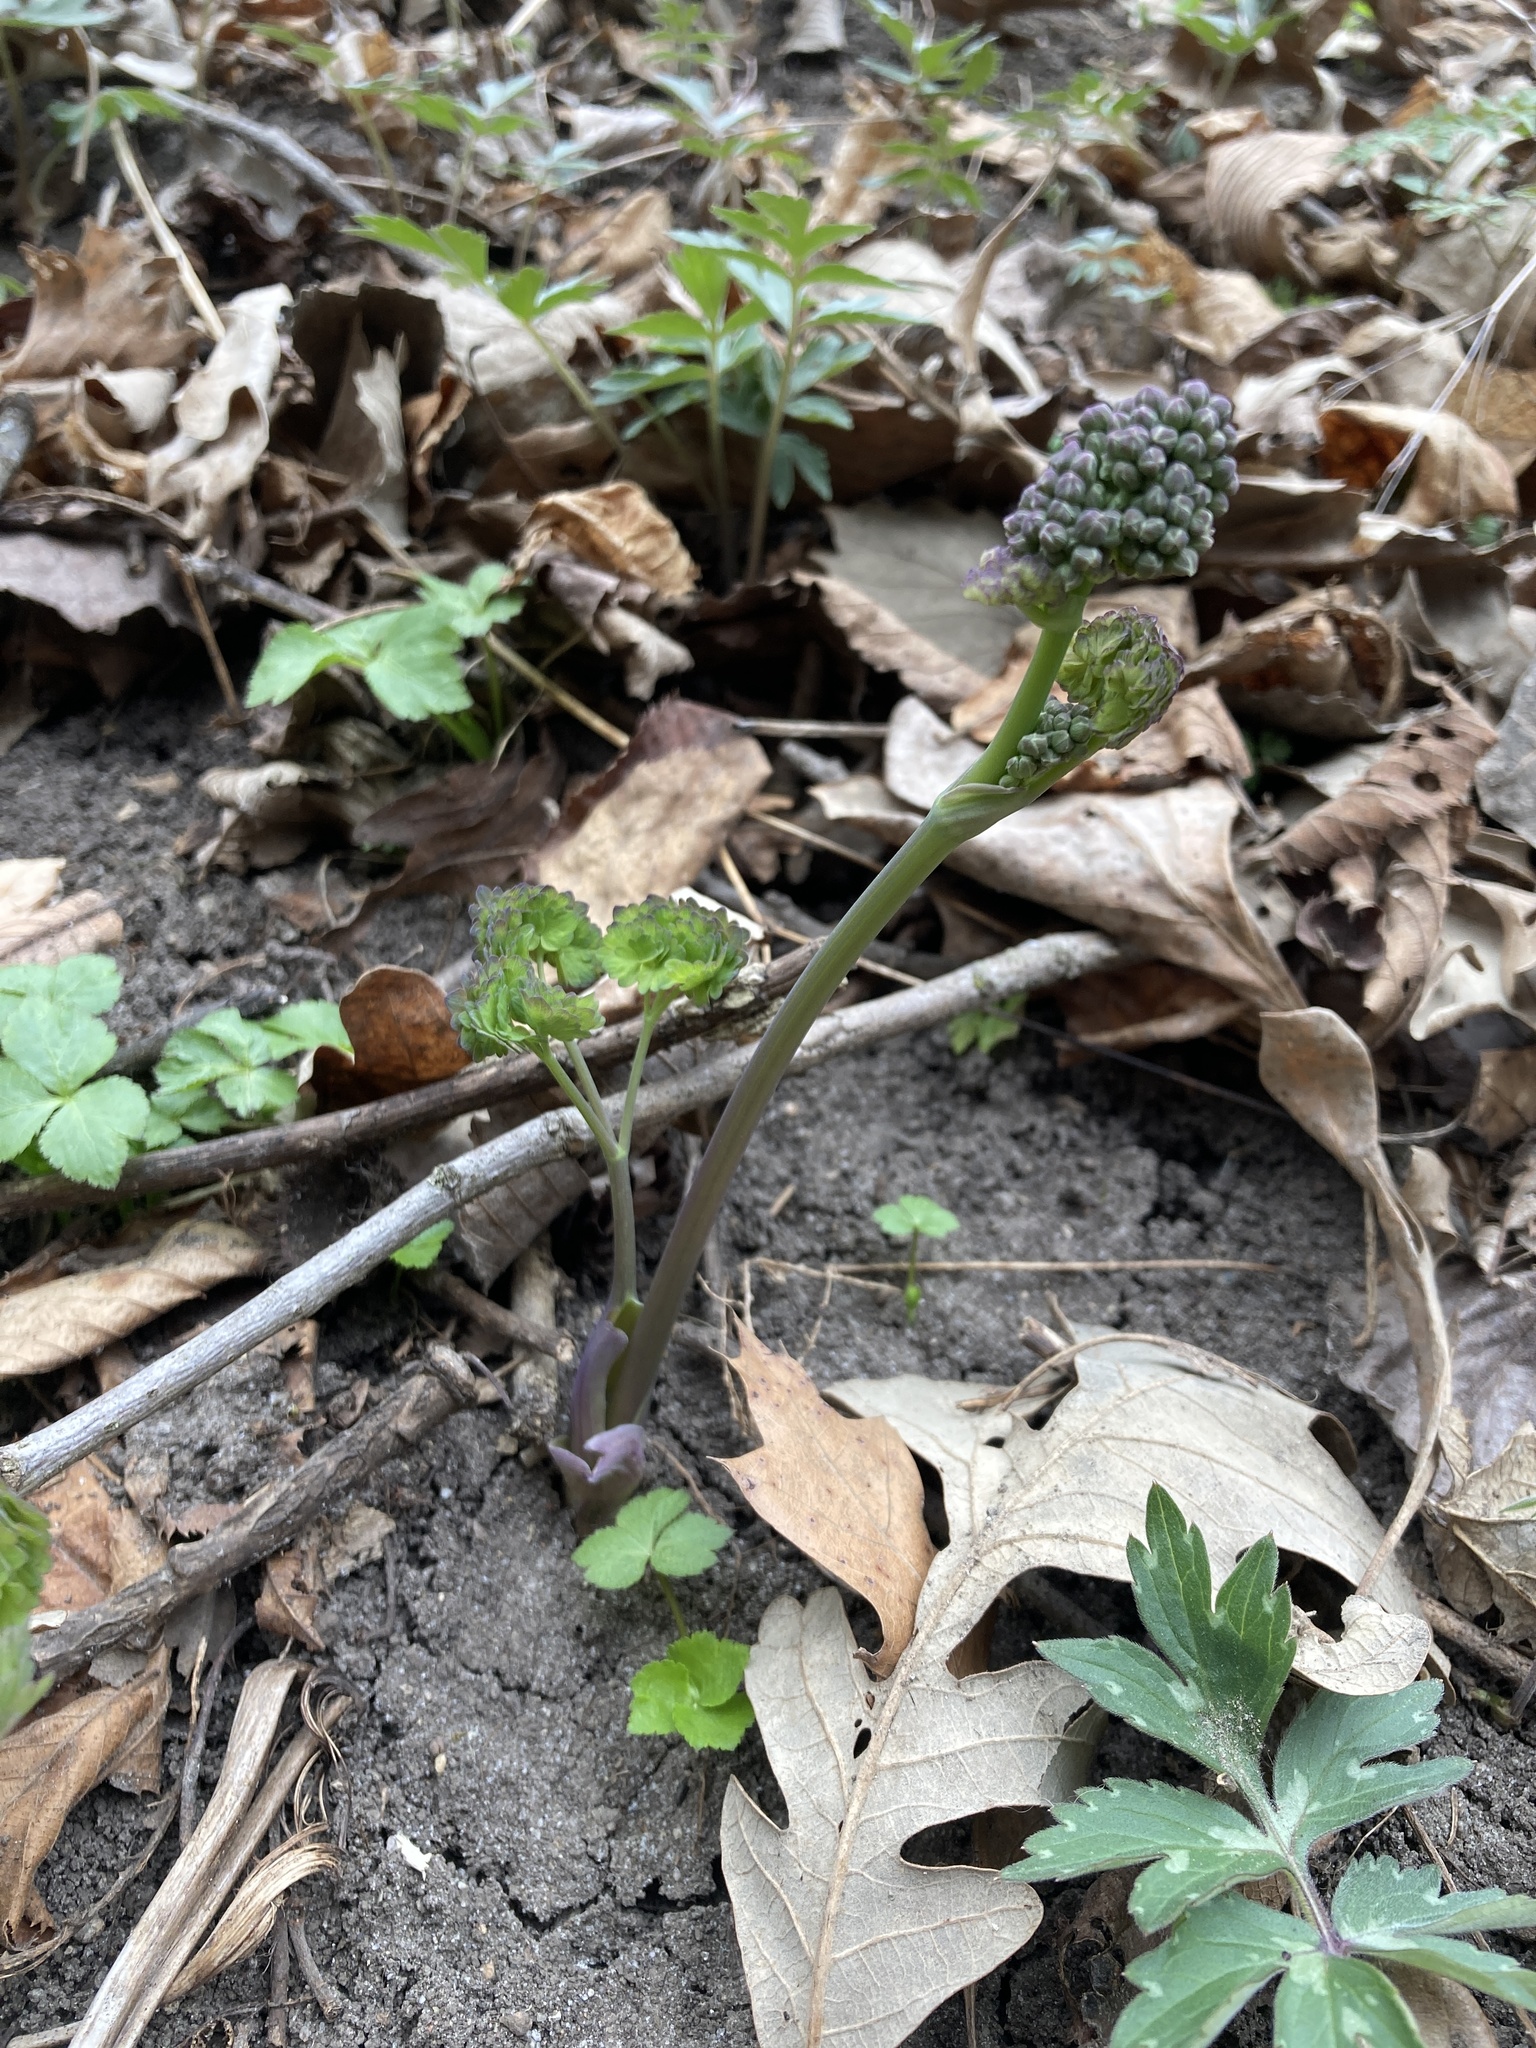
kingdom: Plantae
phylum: Tracheophyta
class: Magnoliopsida
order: Ranunculales
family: Ranunculaceae
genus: Thalictrum
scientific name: Thalictrum dioicum
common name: Early meadow-rue
